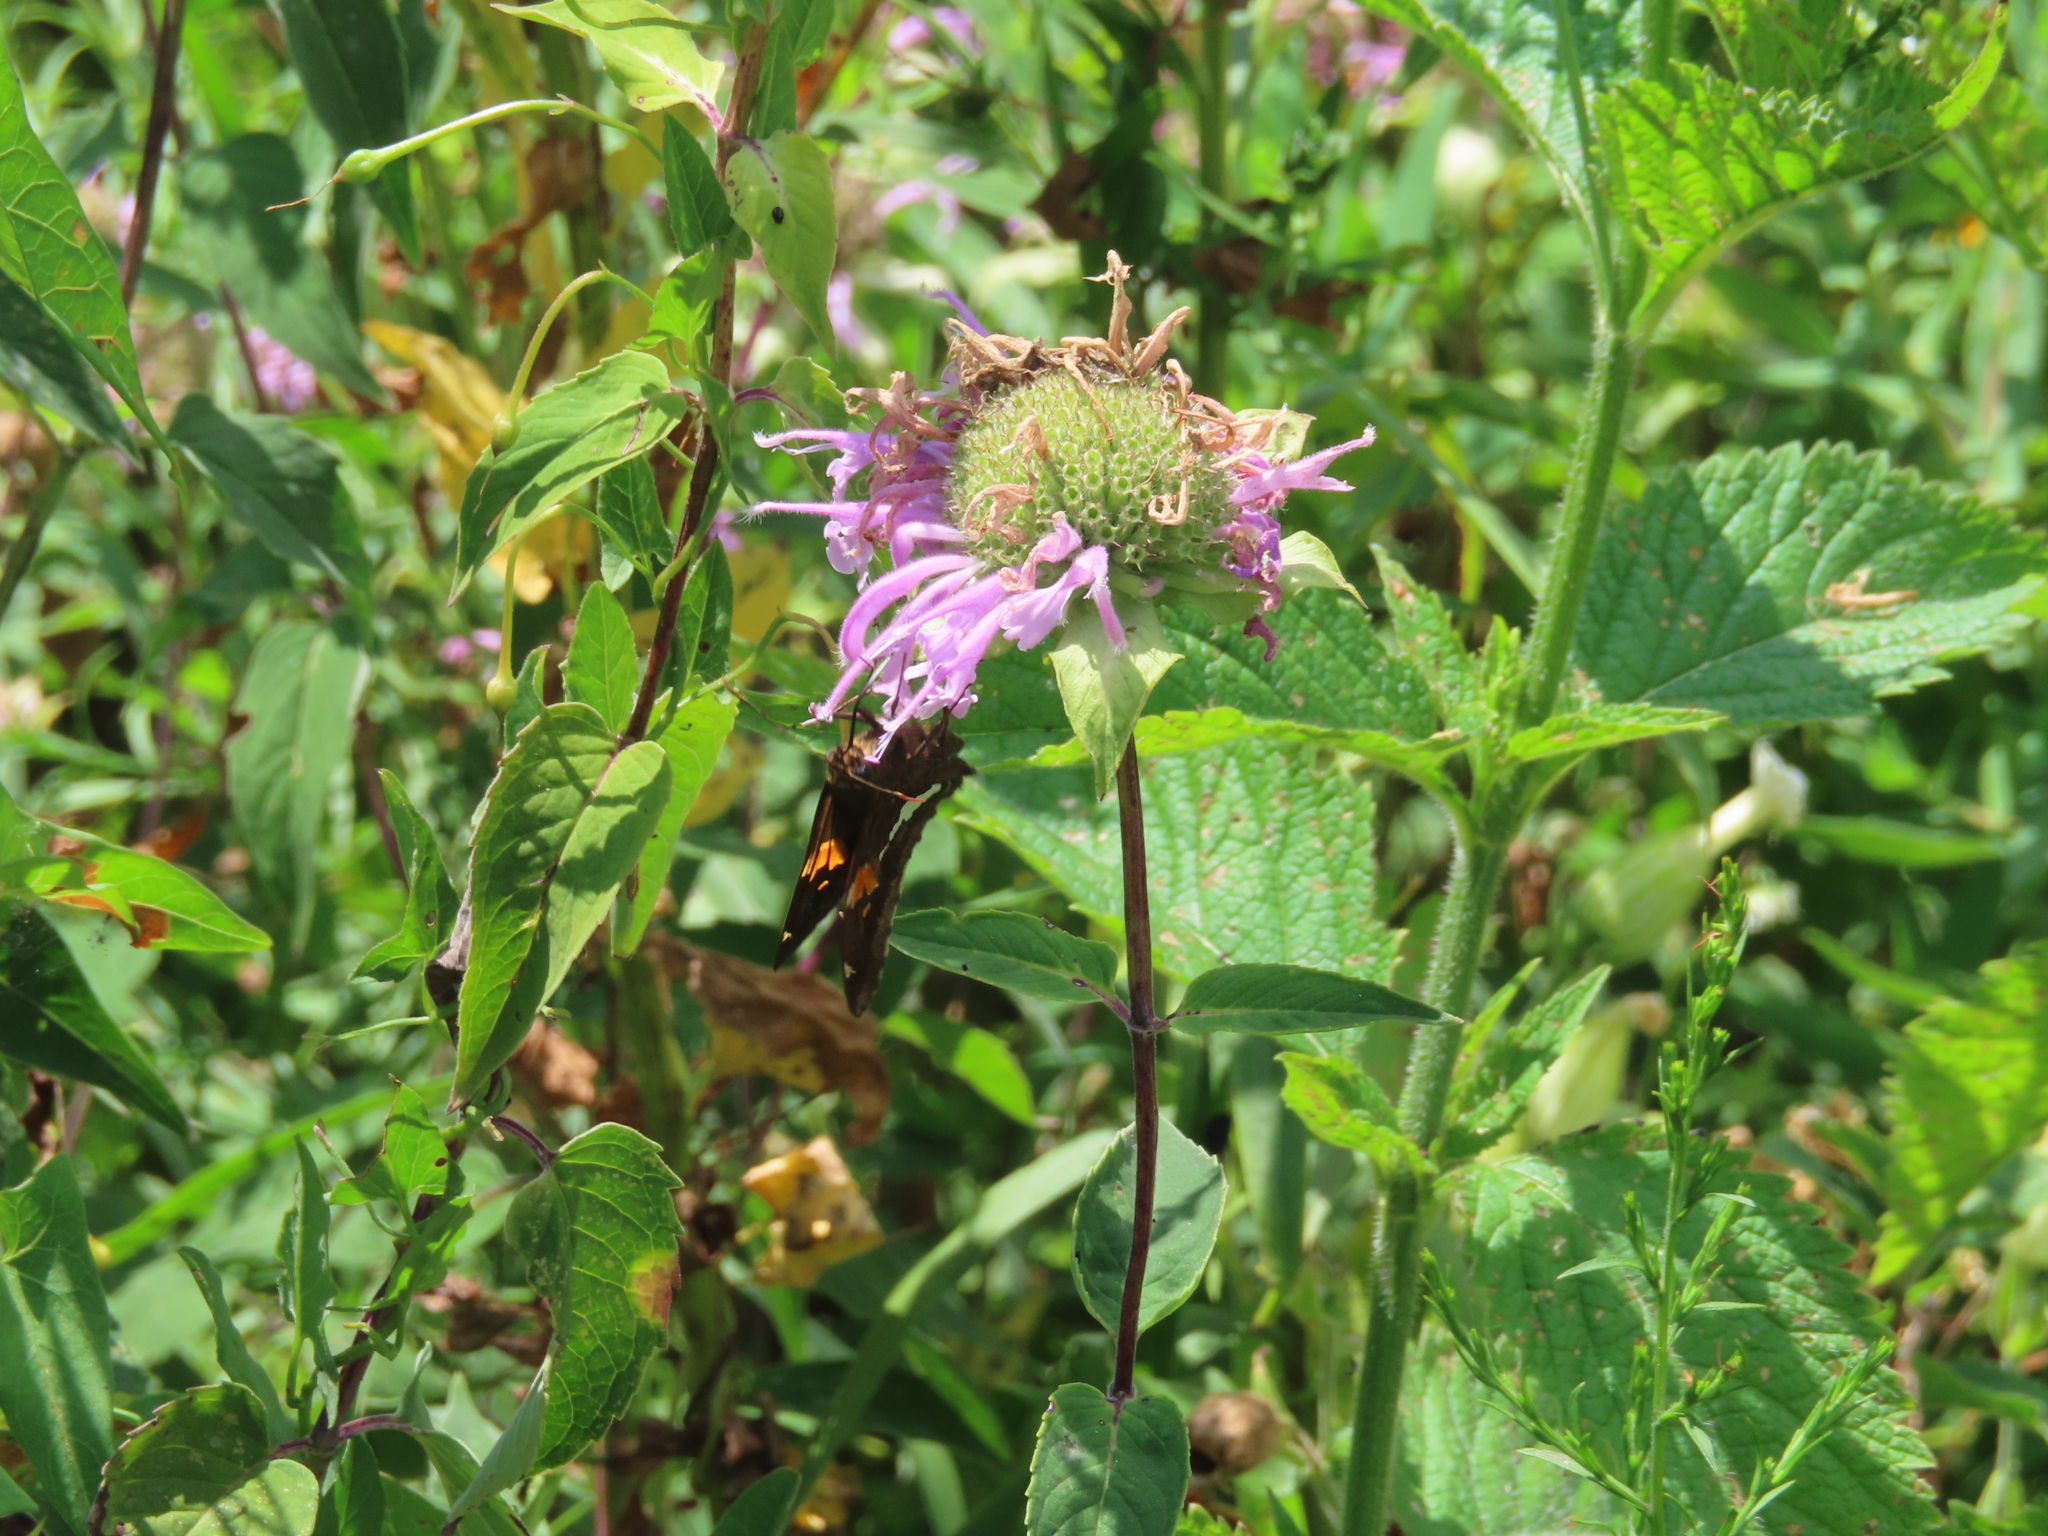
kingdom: Plantae
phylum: Tracheophyta
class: Magnoliopsida
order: Lamiales
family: Lamiaceae
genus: Monarda
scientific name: Monarda fistulosa
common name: Purple beebalm
